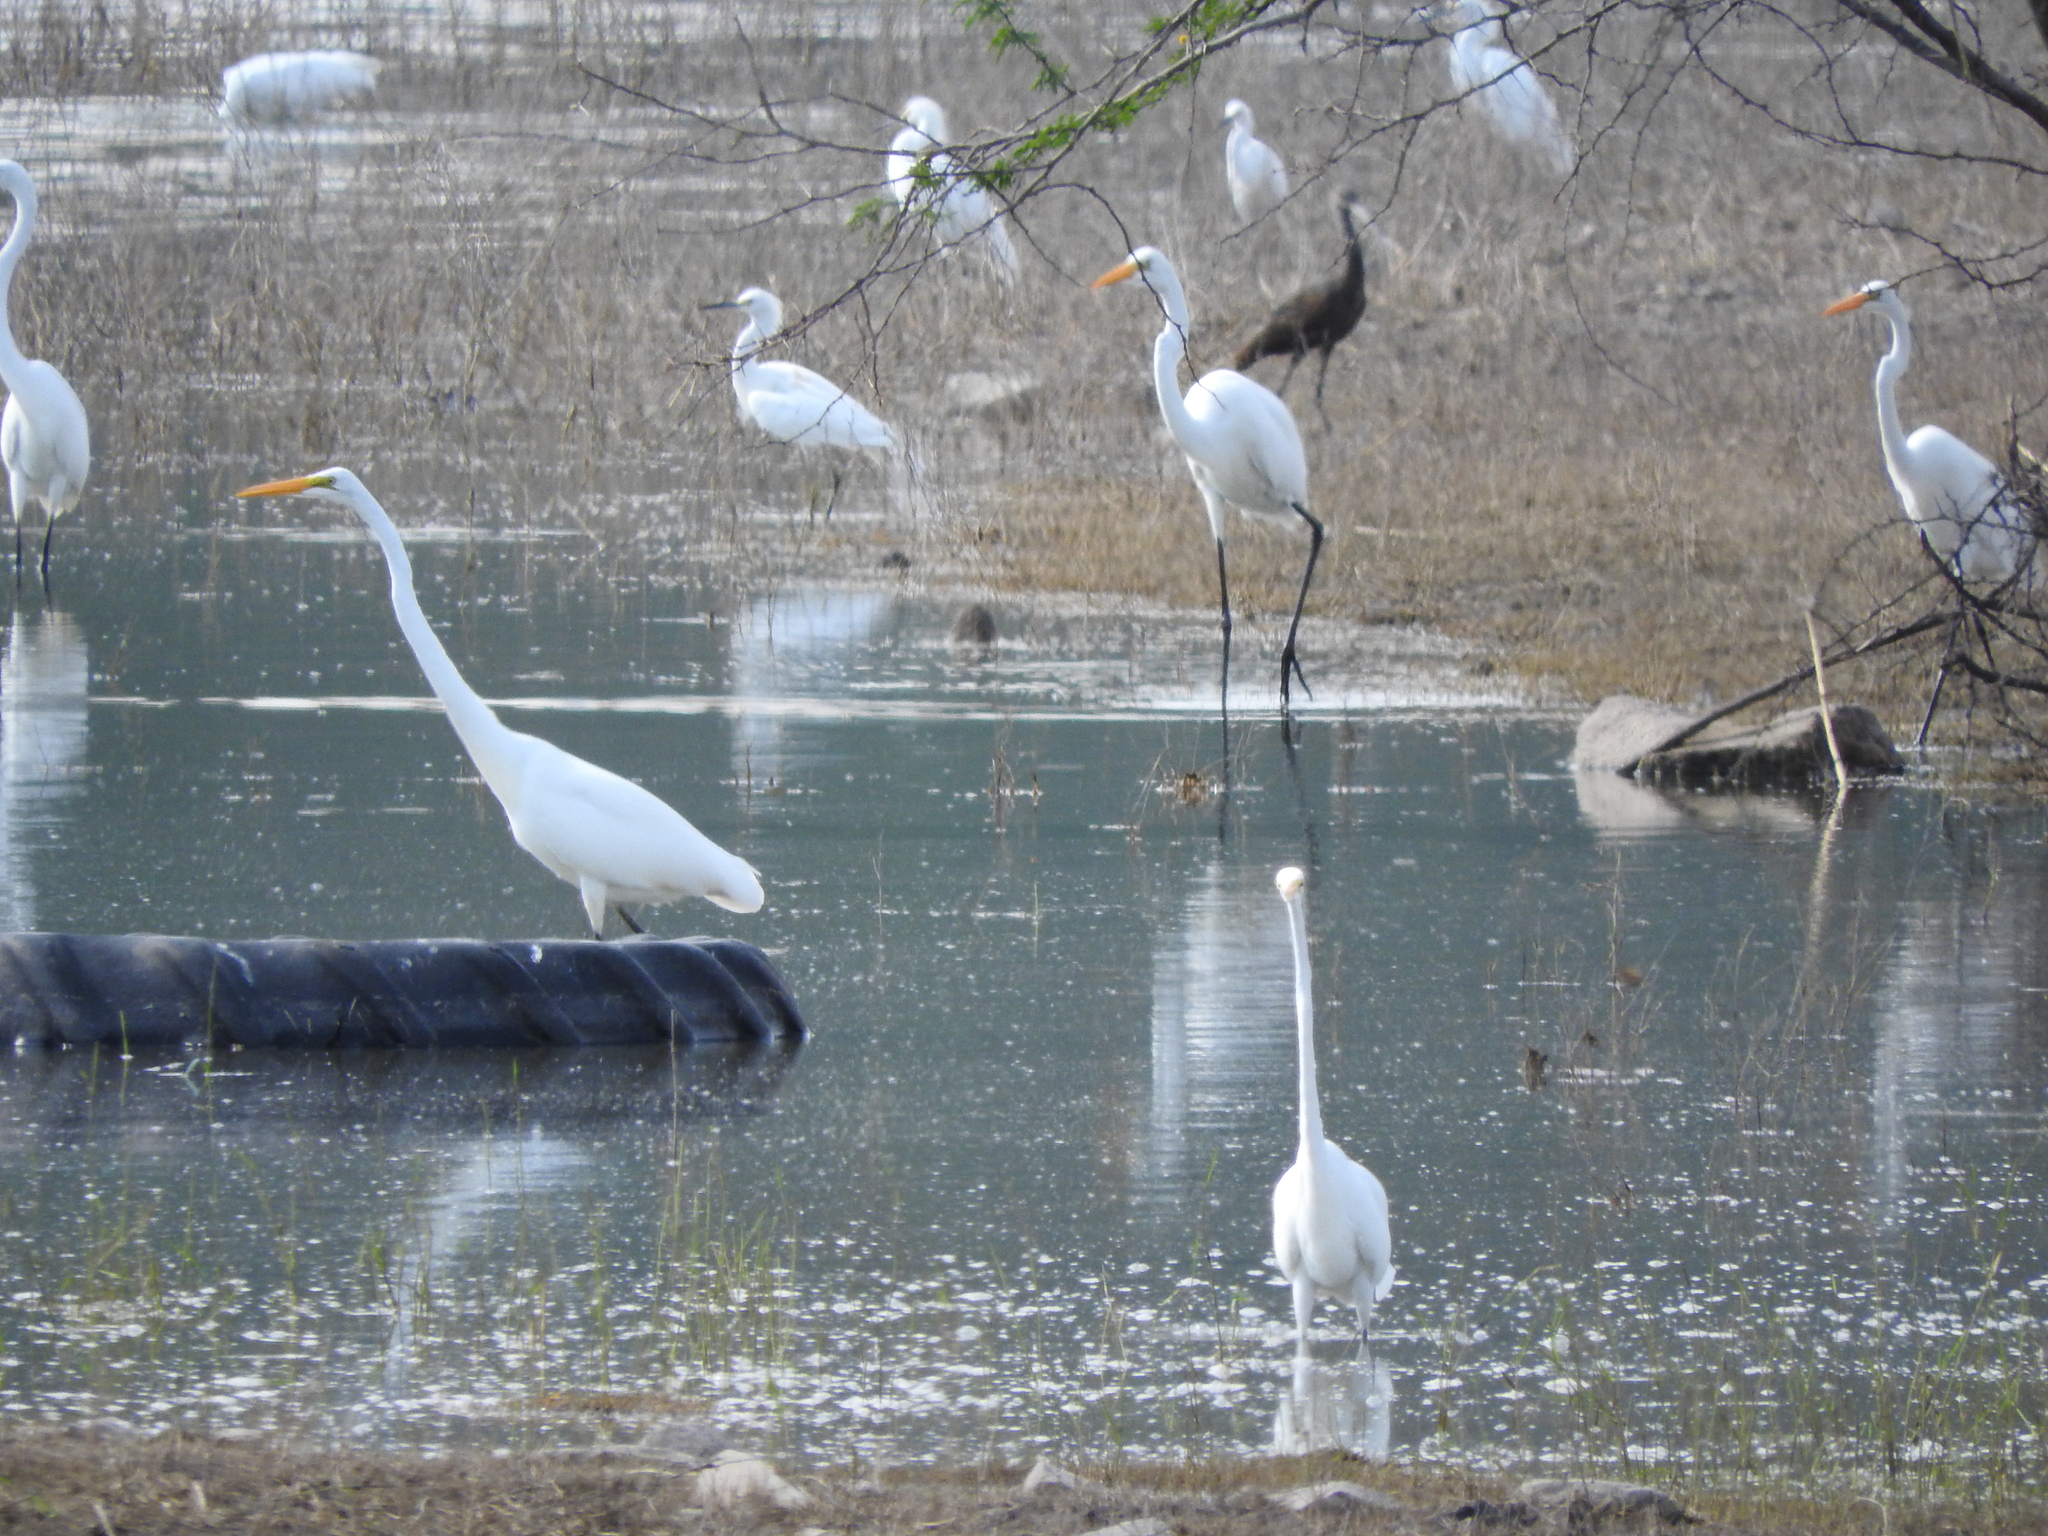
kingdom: Animalia
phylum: Chordata
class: Aves
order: Pelecaniformes
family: Ardeidae
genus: Ardea
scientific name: Ardea alba
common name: Great egret
